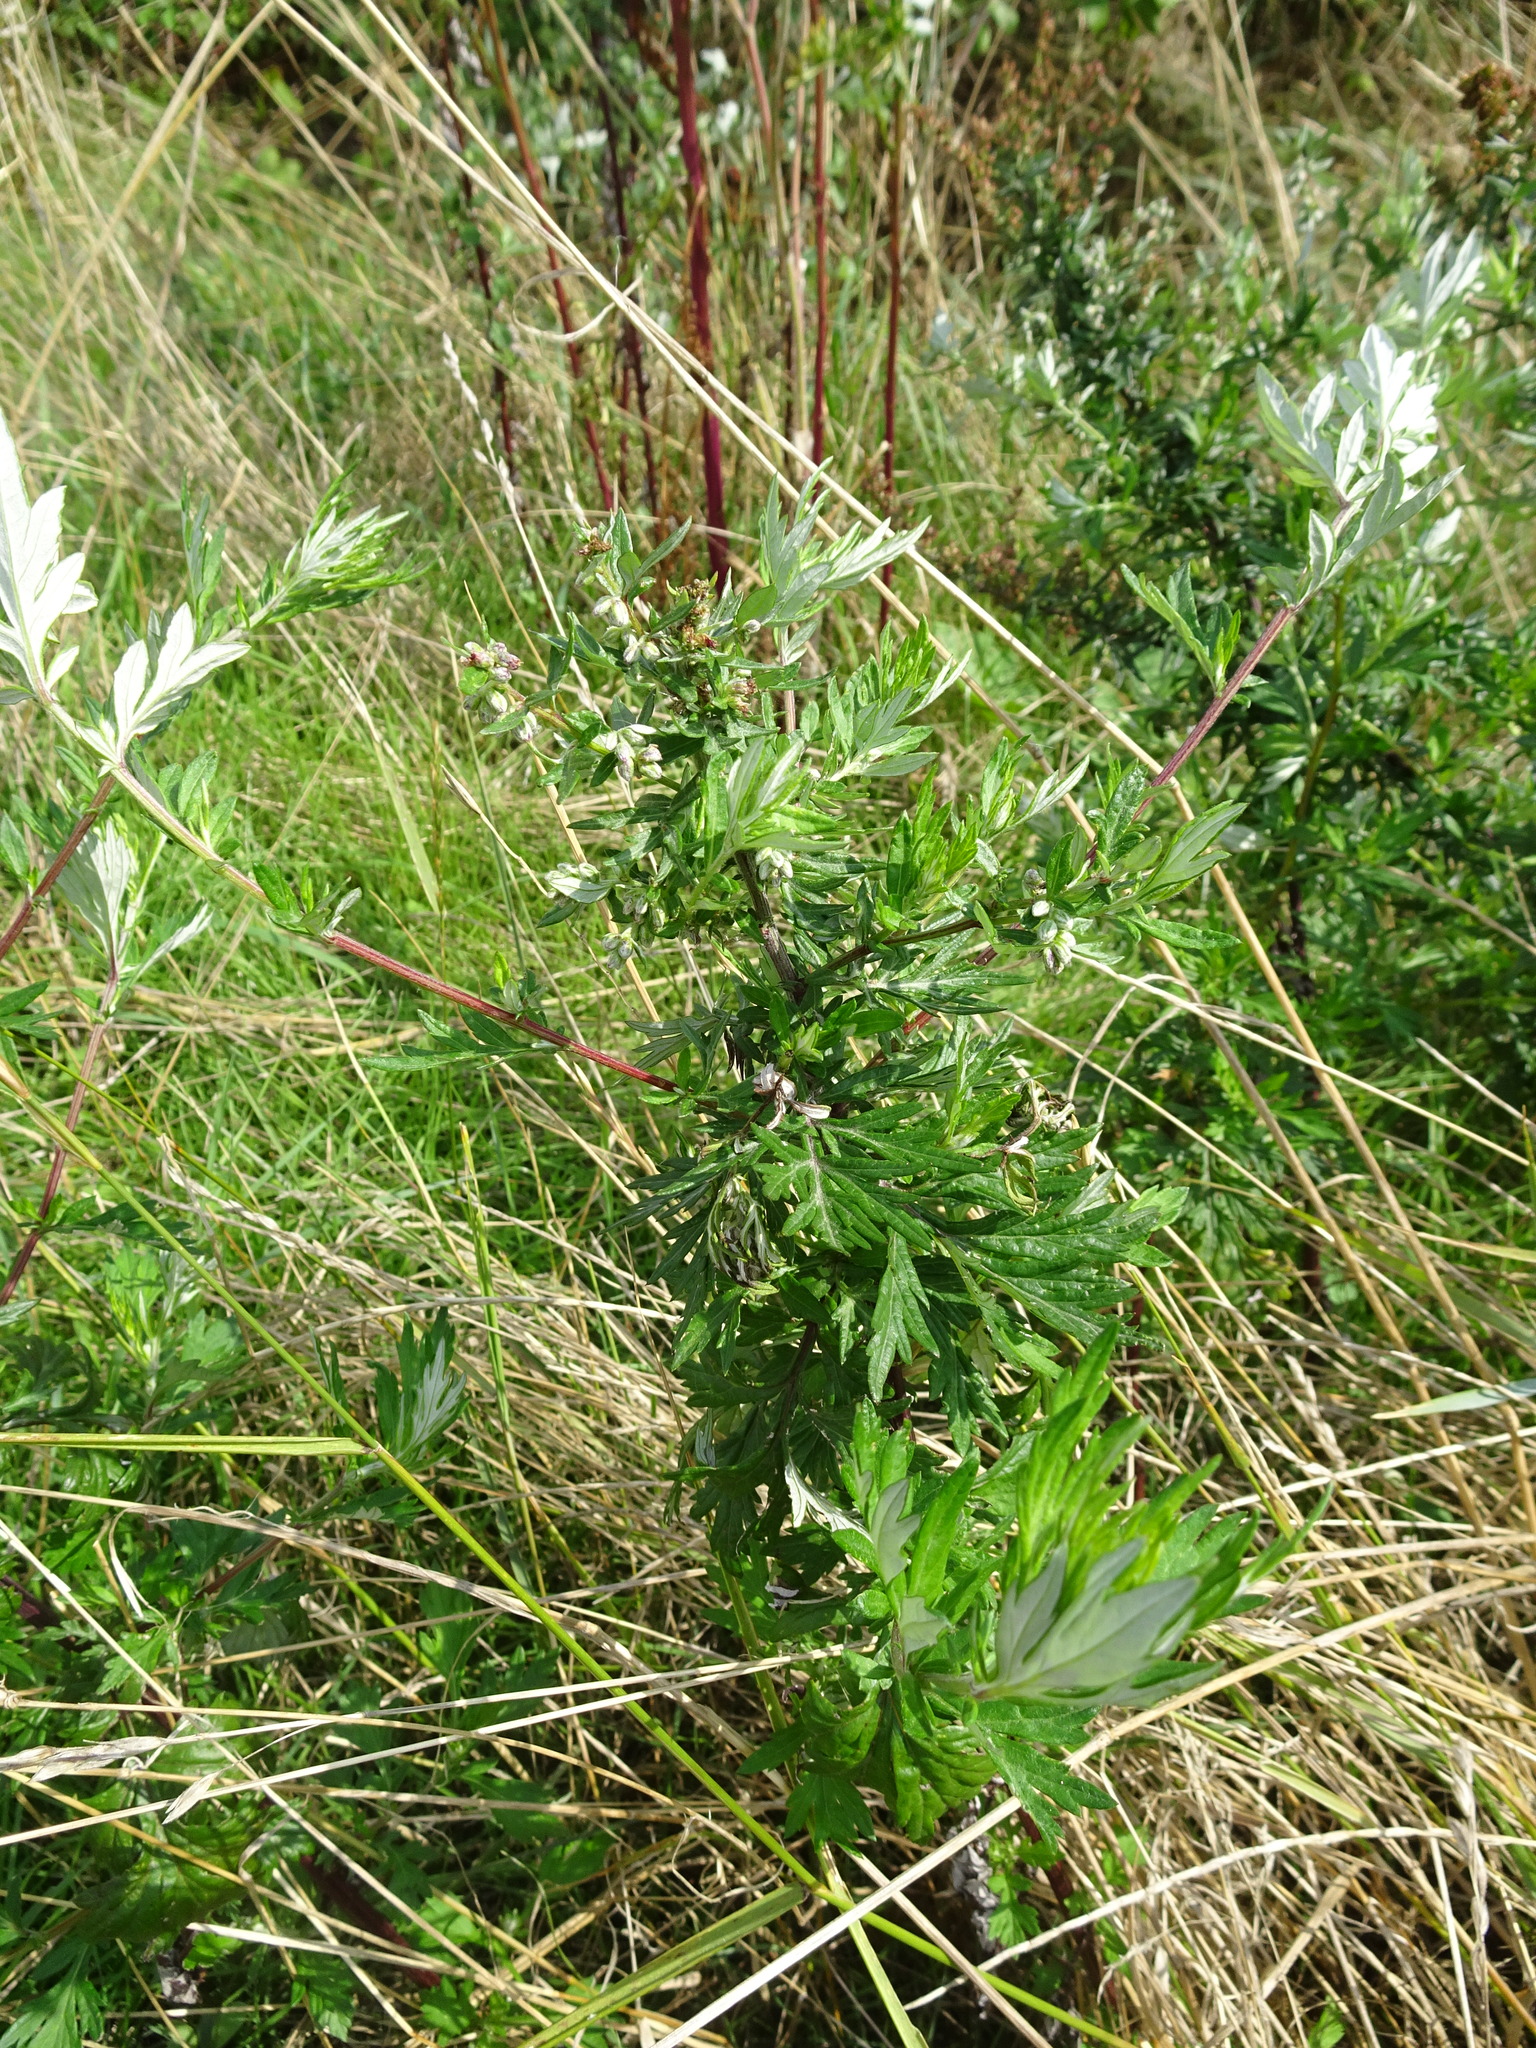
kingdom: Plantae
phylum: Tracheophyta
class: Magnoliopsida
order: Asterales
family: Asteraceae
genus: Artemisia
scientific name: Artemisia vulgaris
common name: Mugwort
